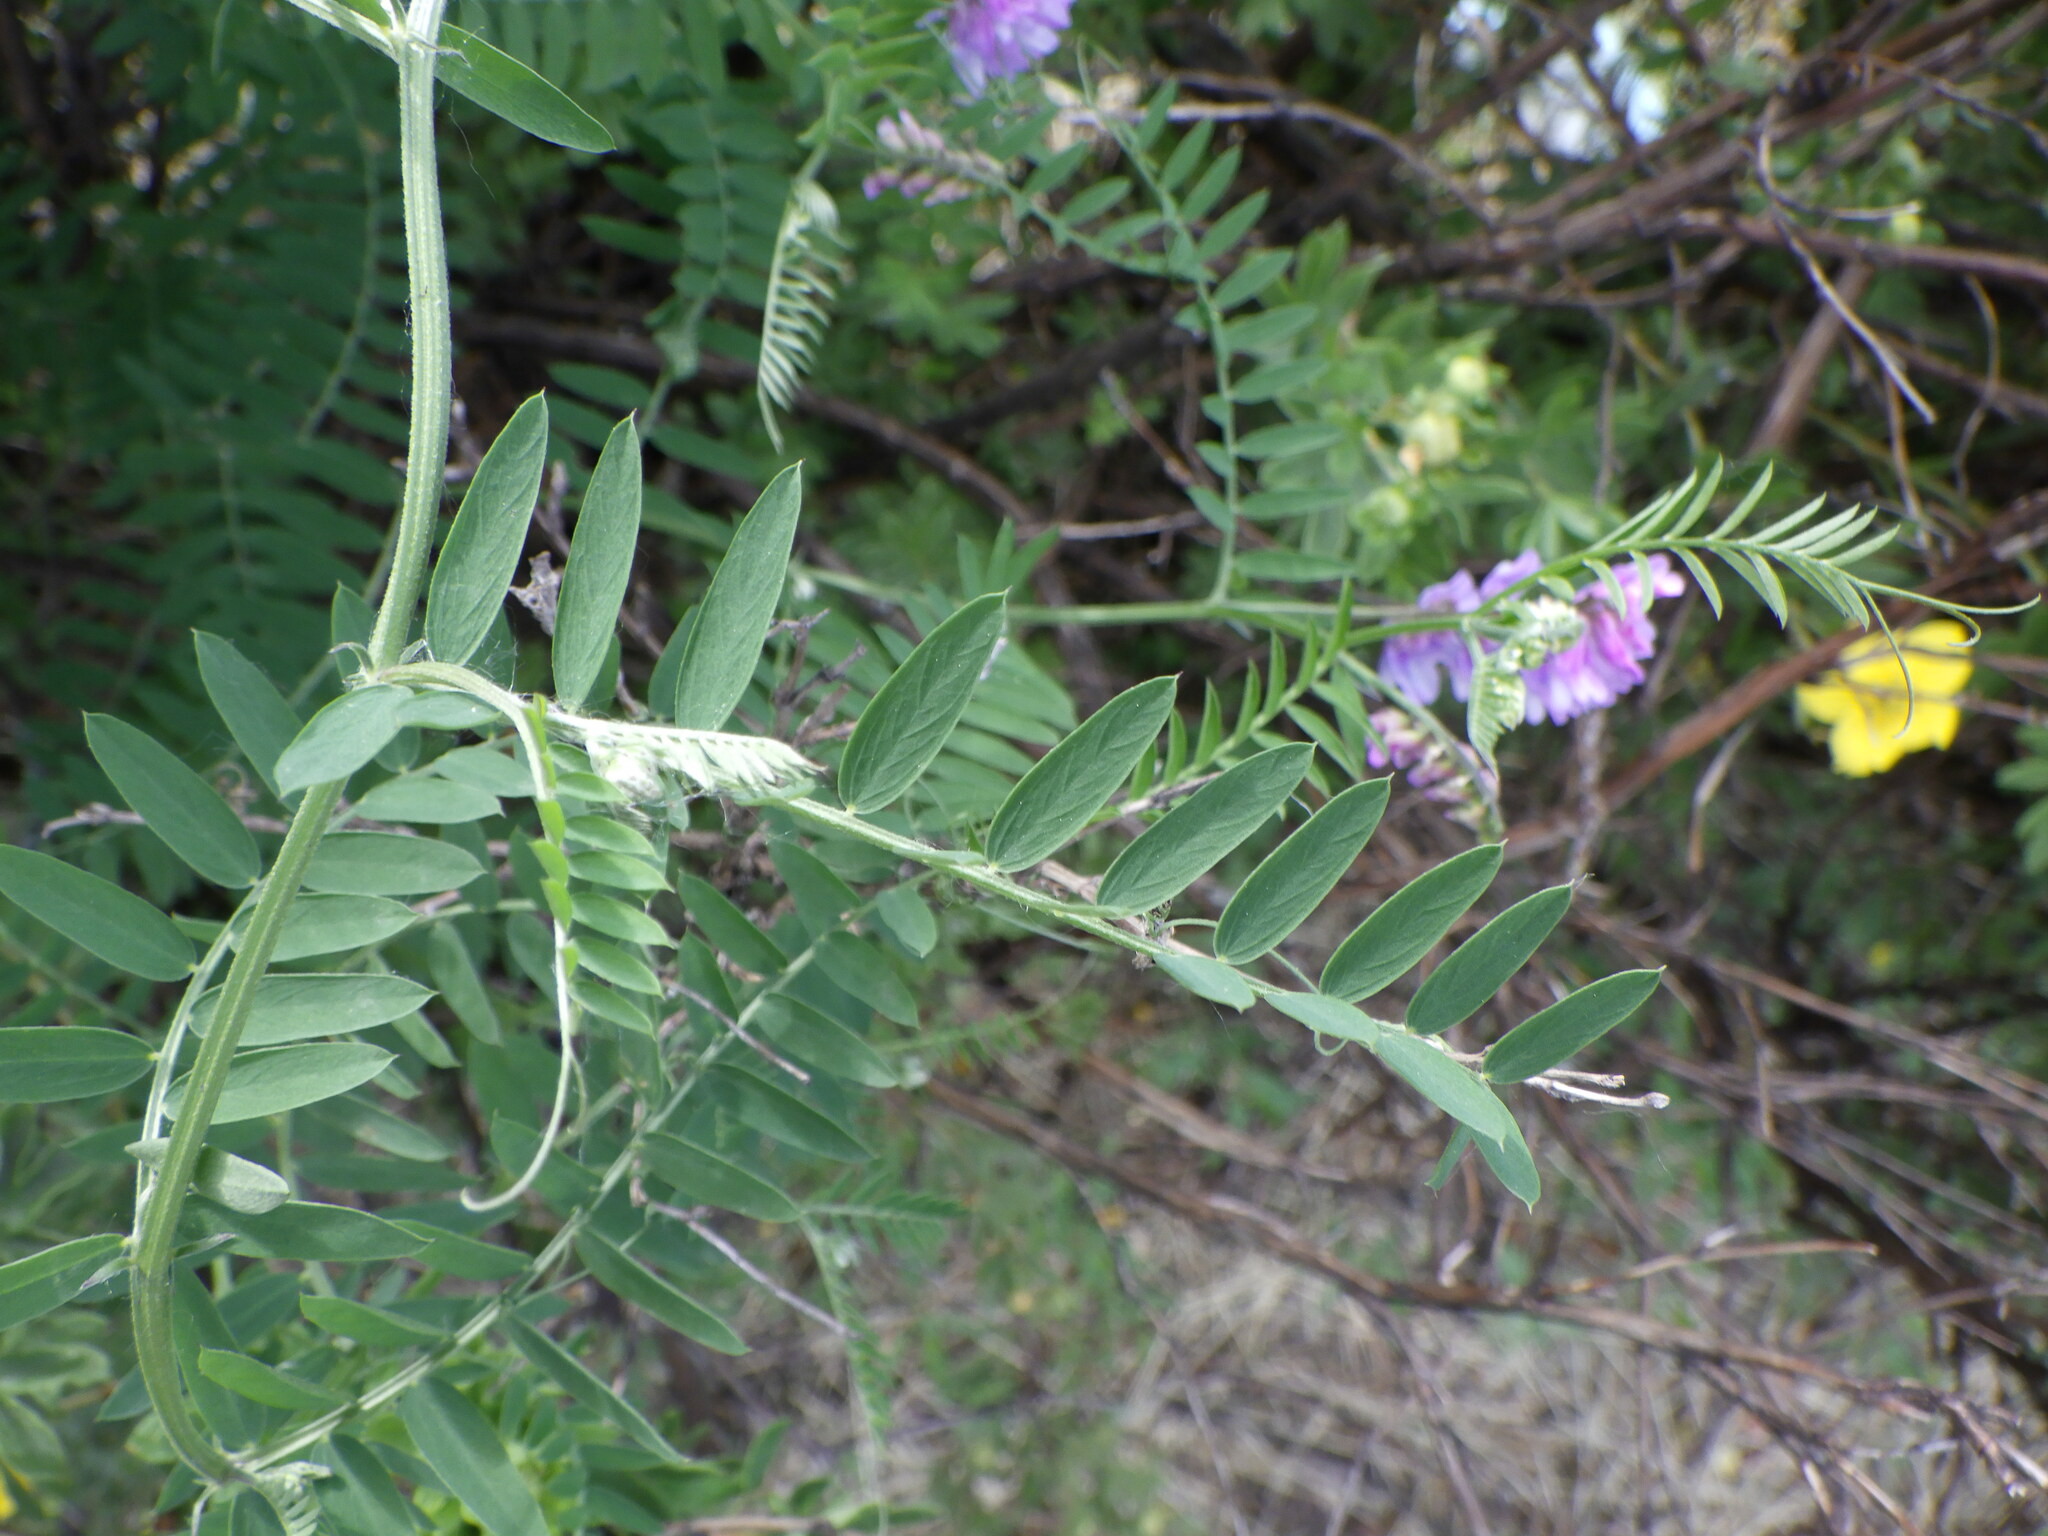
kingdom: Plantae
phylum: Tracheophyta
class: Magnoliopsida
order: Fabales
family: Fabaceae
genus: Vicia
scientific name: Vicia cracca
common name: Bird vetch
